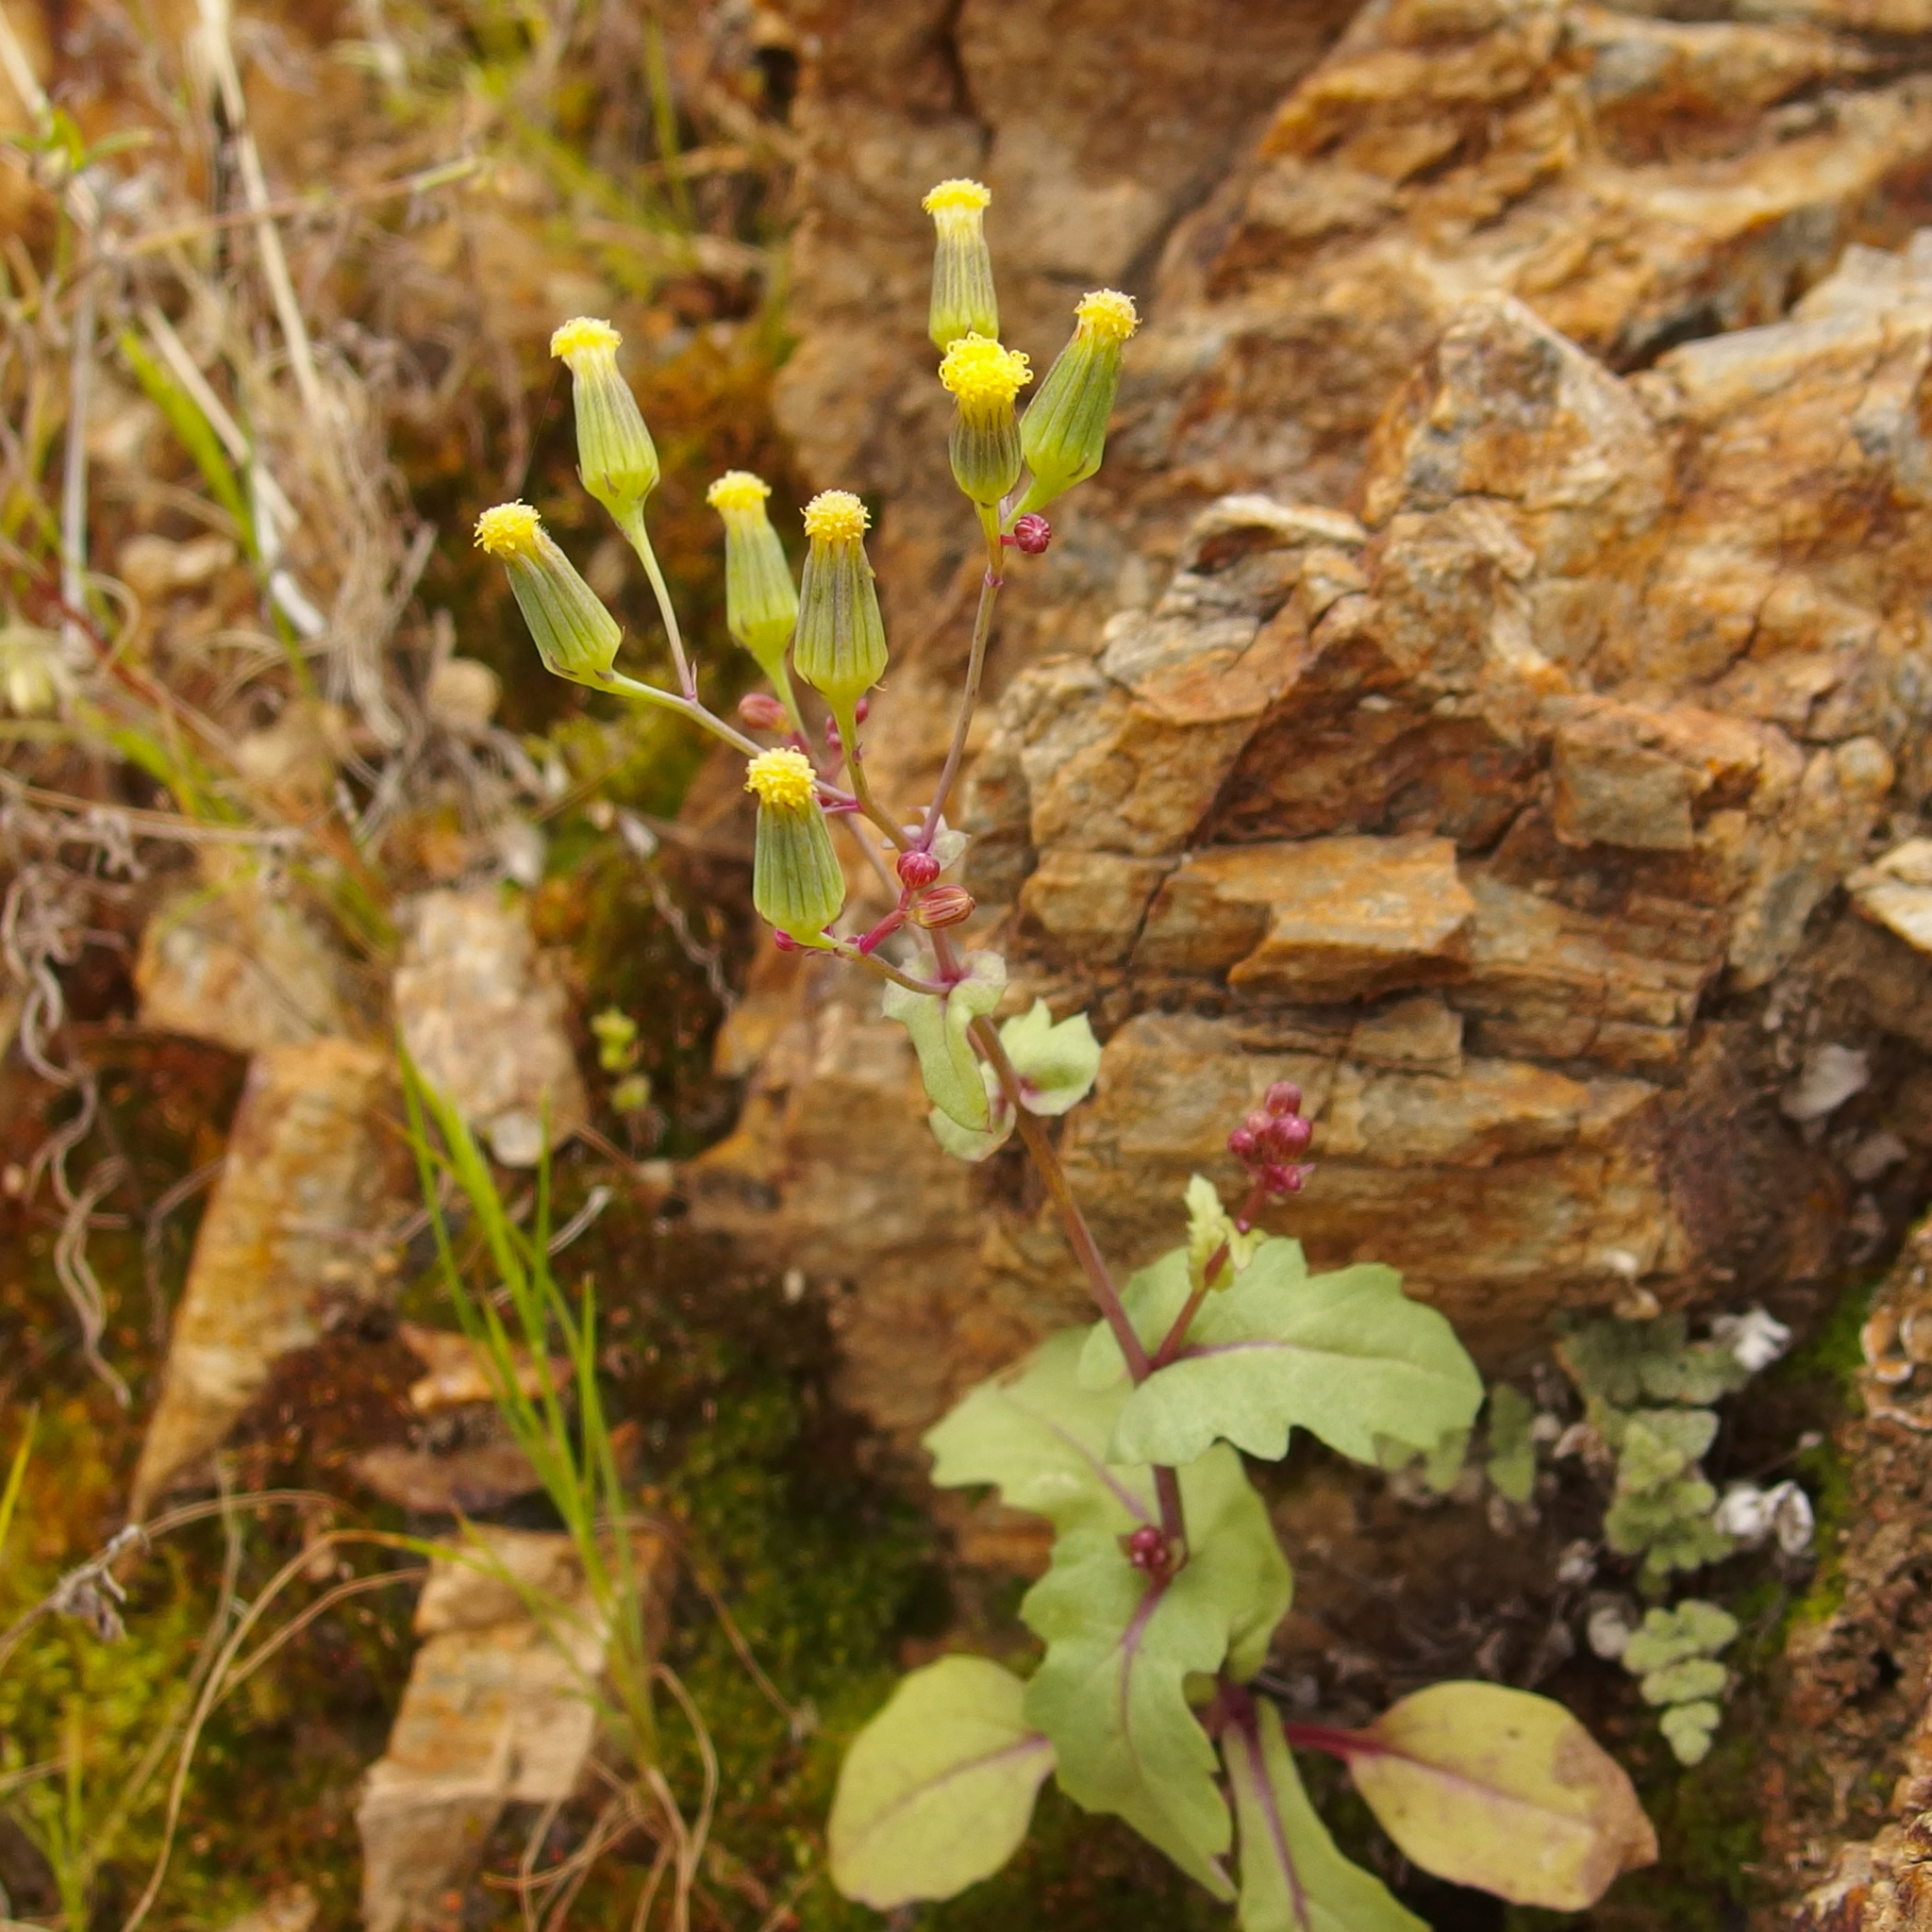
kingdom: Plantae
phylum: Tracheophyta
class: Magnoliopsida
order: Asterales
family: Asteraceae
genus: Senecio
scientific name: Senecio mohavensis
